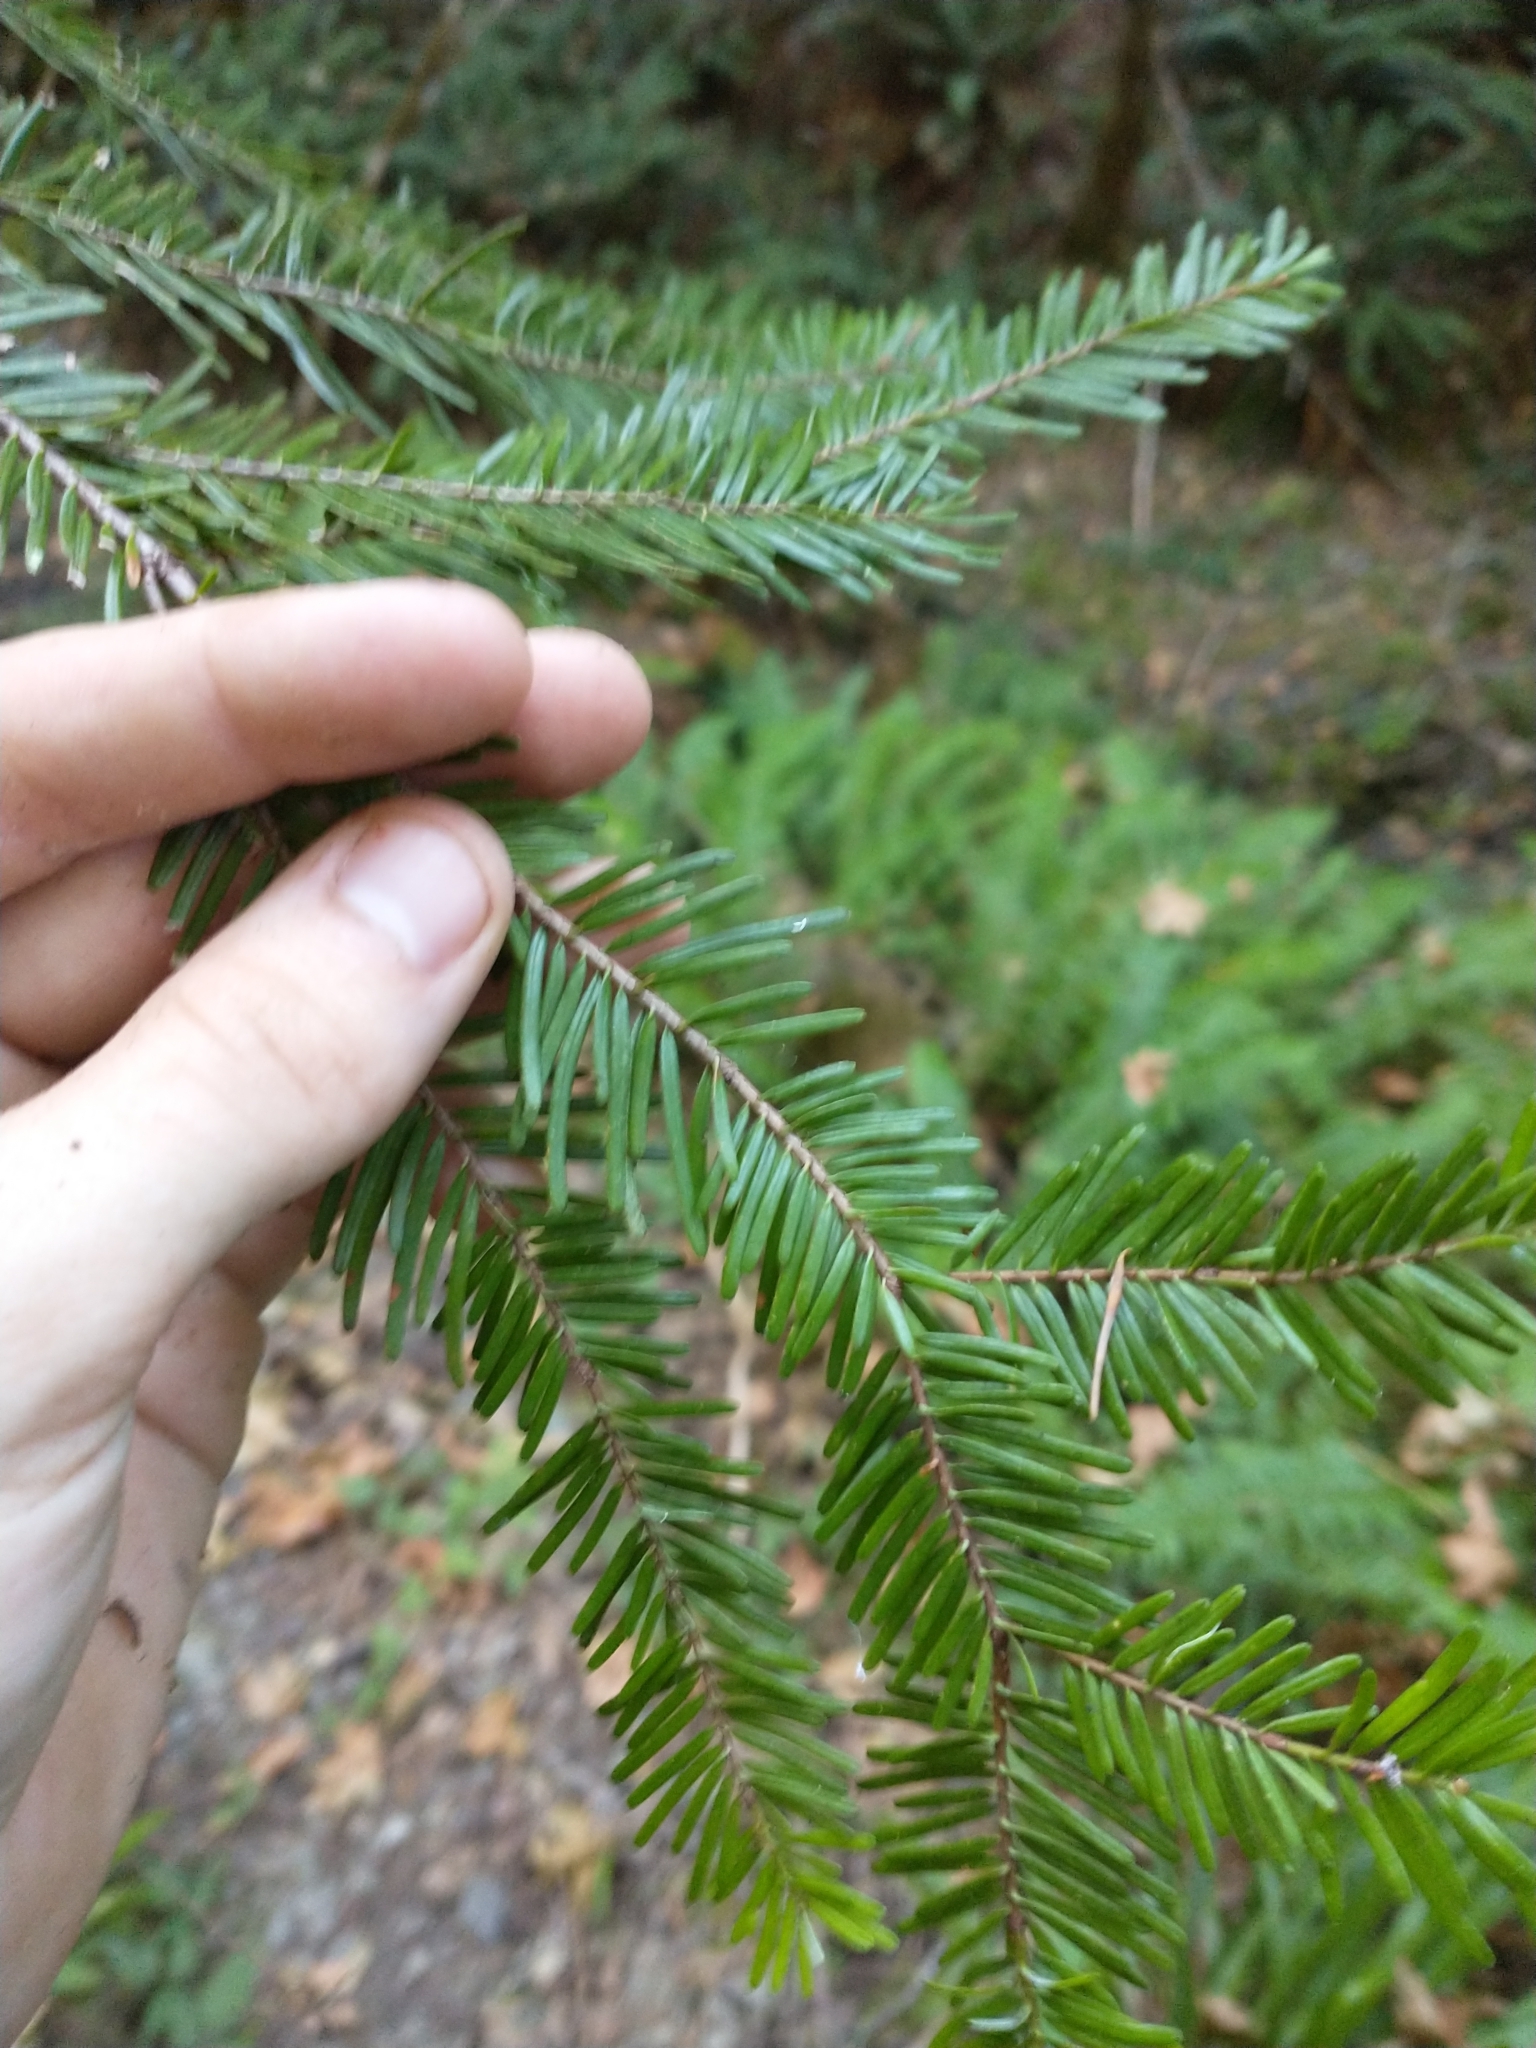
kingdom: Plantae
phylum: Tracheophyta
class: Pinopsida
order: Pinales
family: Pinaceae
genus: Abies
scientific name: Abies grandis
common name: Giant fir
